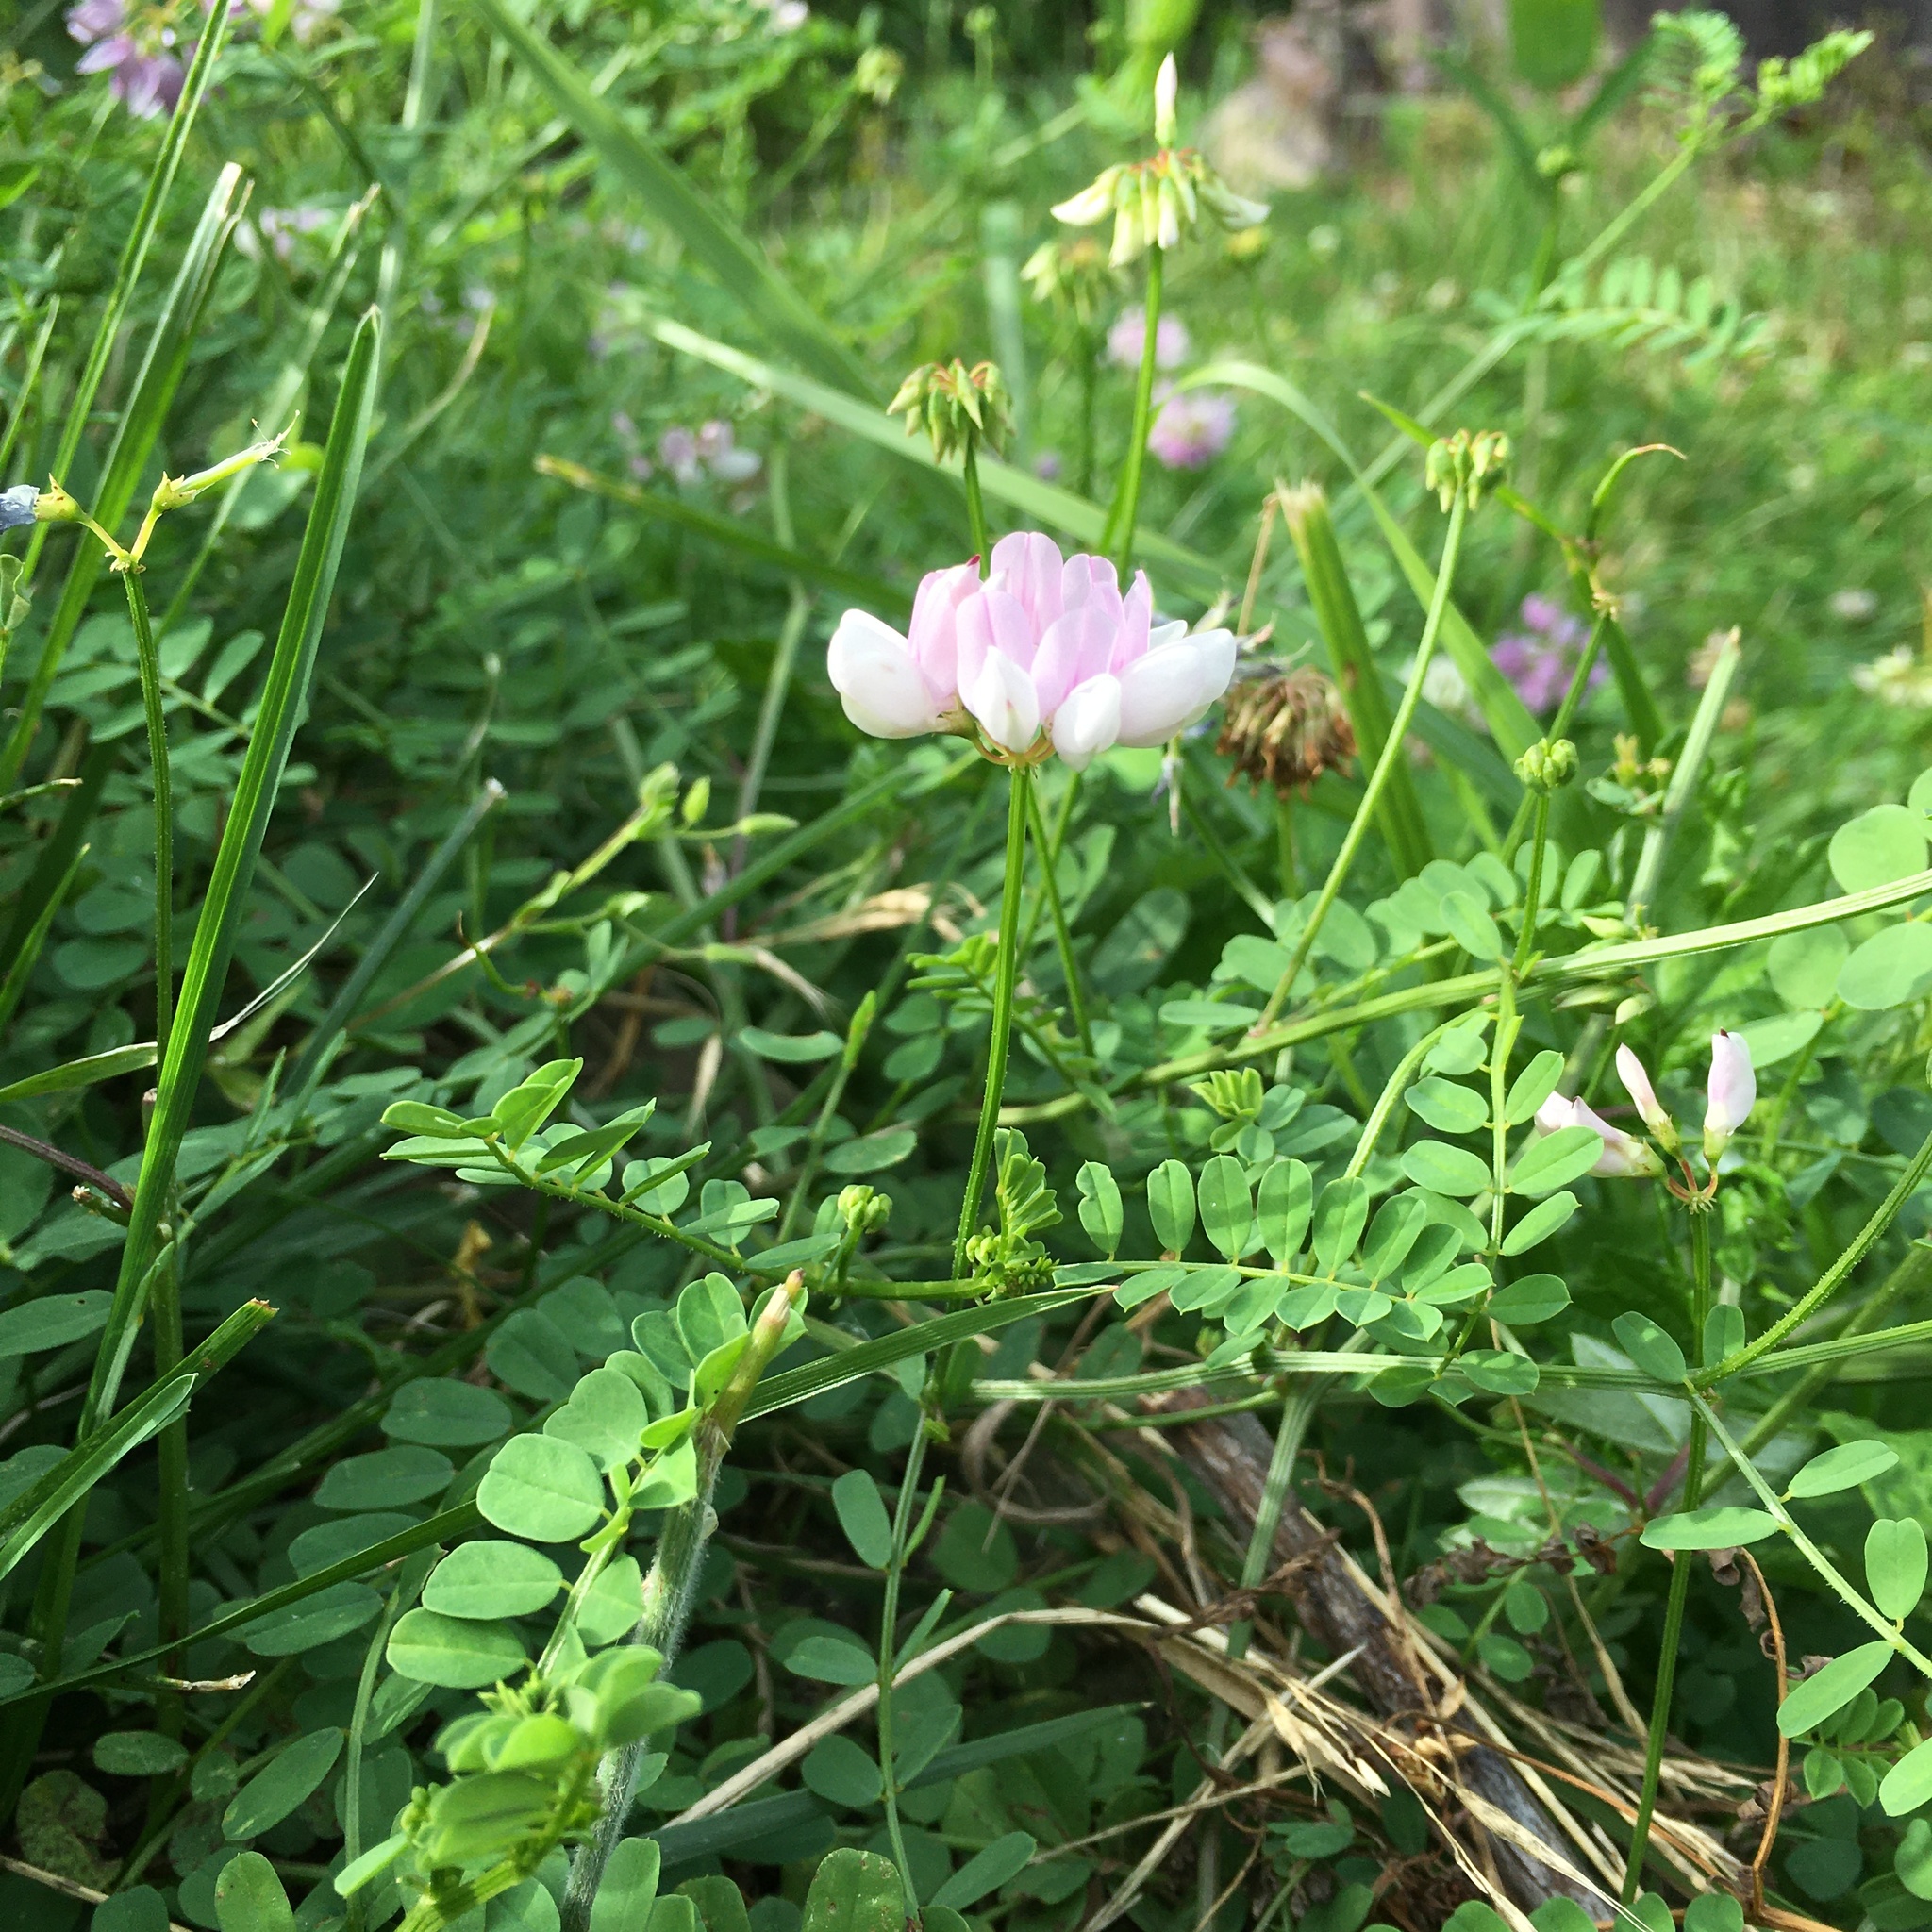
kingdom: Plantae
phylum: Tracheophyta
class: Magnoliopsida
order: Fabales
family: Fabaceae
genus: Coronilla
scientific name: Coronilla varia
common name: Crownvetch
